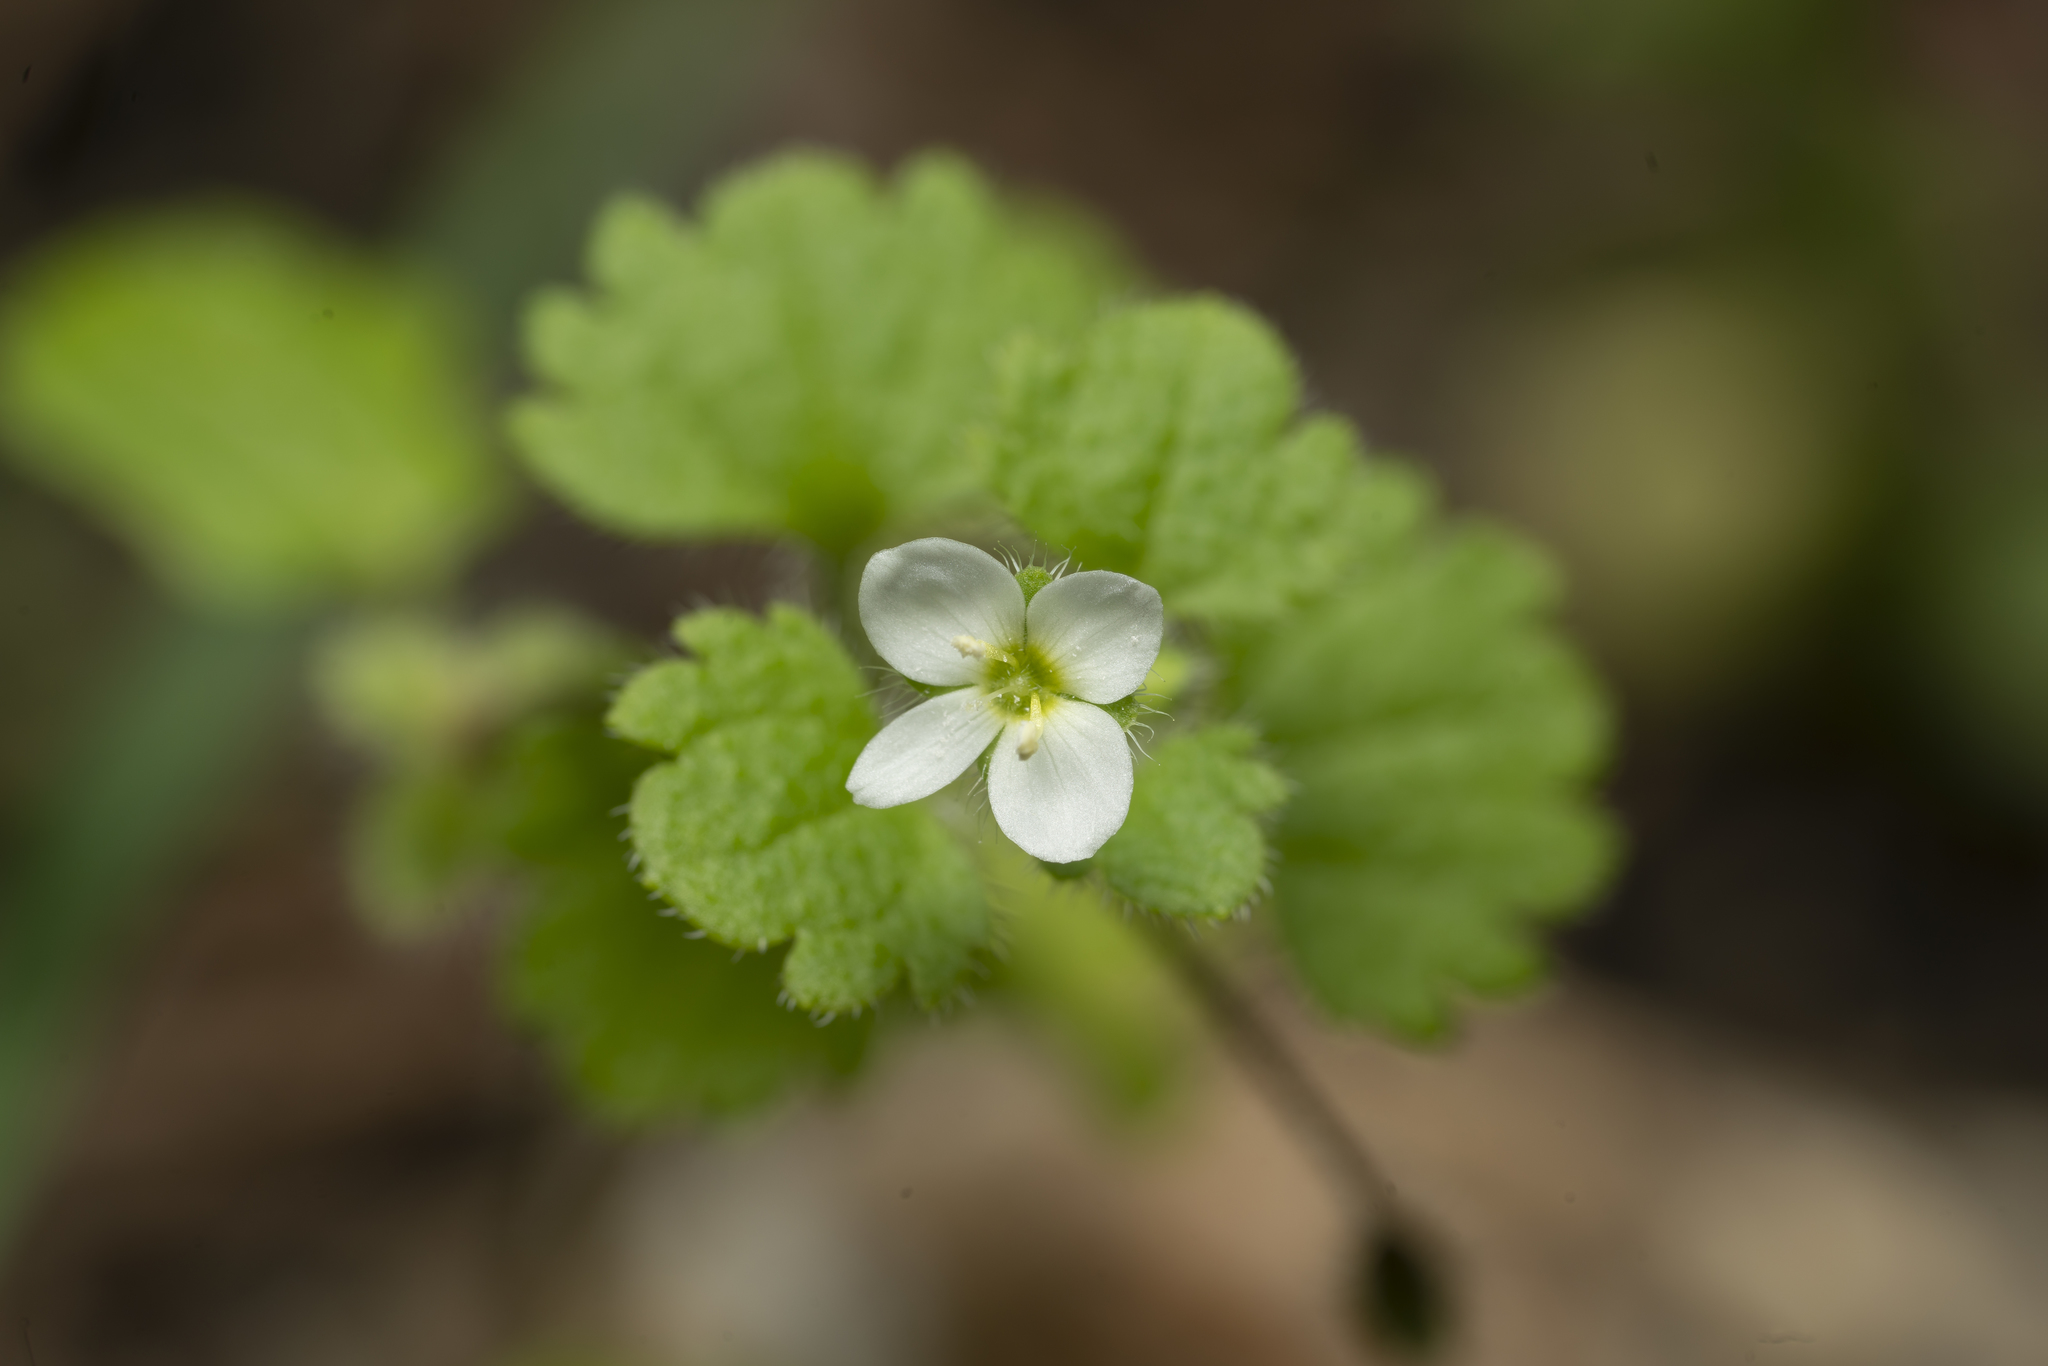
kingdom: Plantae
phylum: Tracheophyta
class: Magnoliopsida
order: Lamiales
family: Plantaginaceae
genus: Veronica
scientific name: Veronica cymbalaria
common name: Pale speedwell
